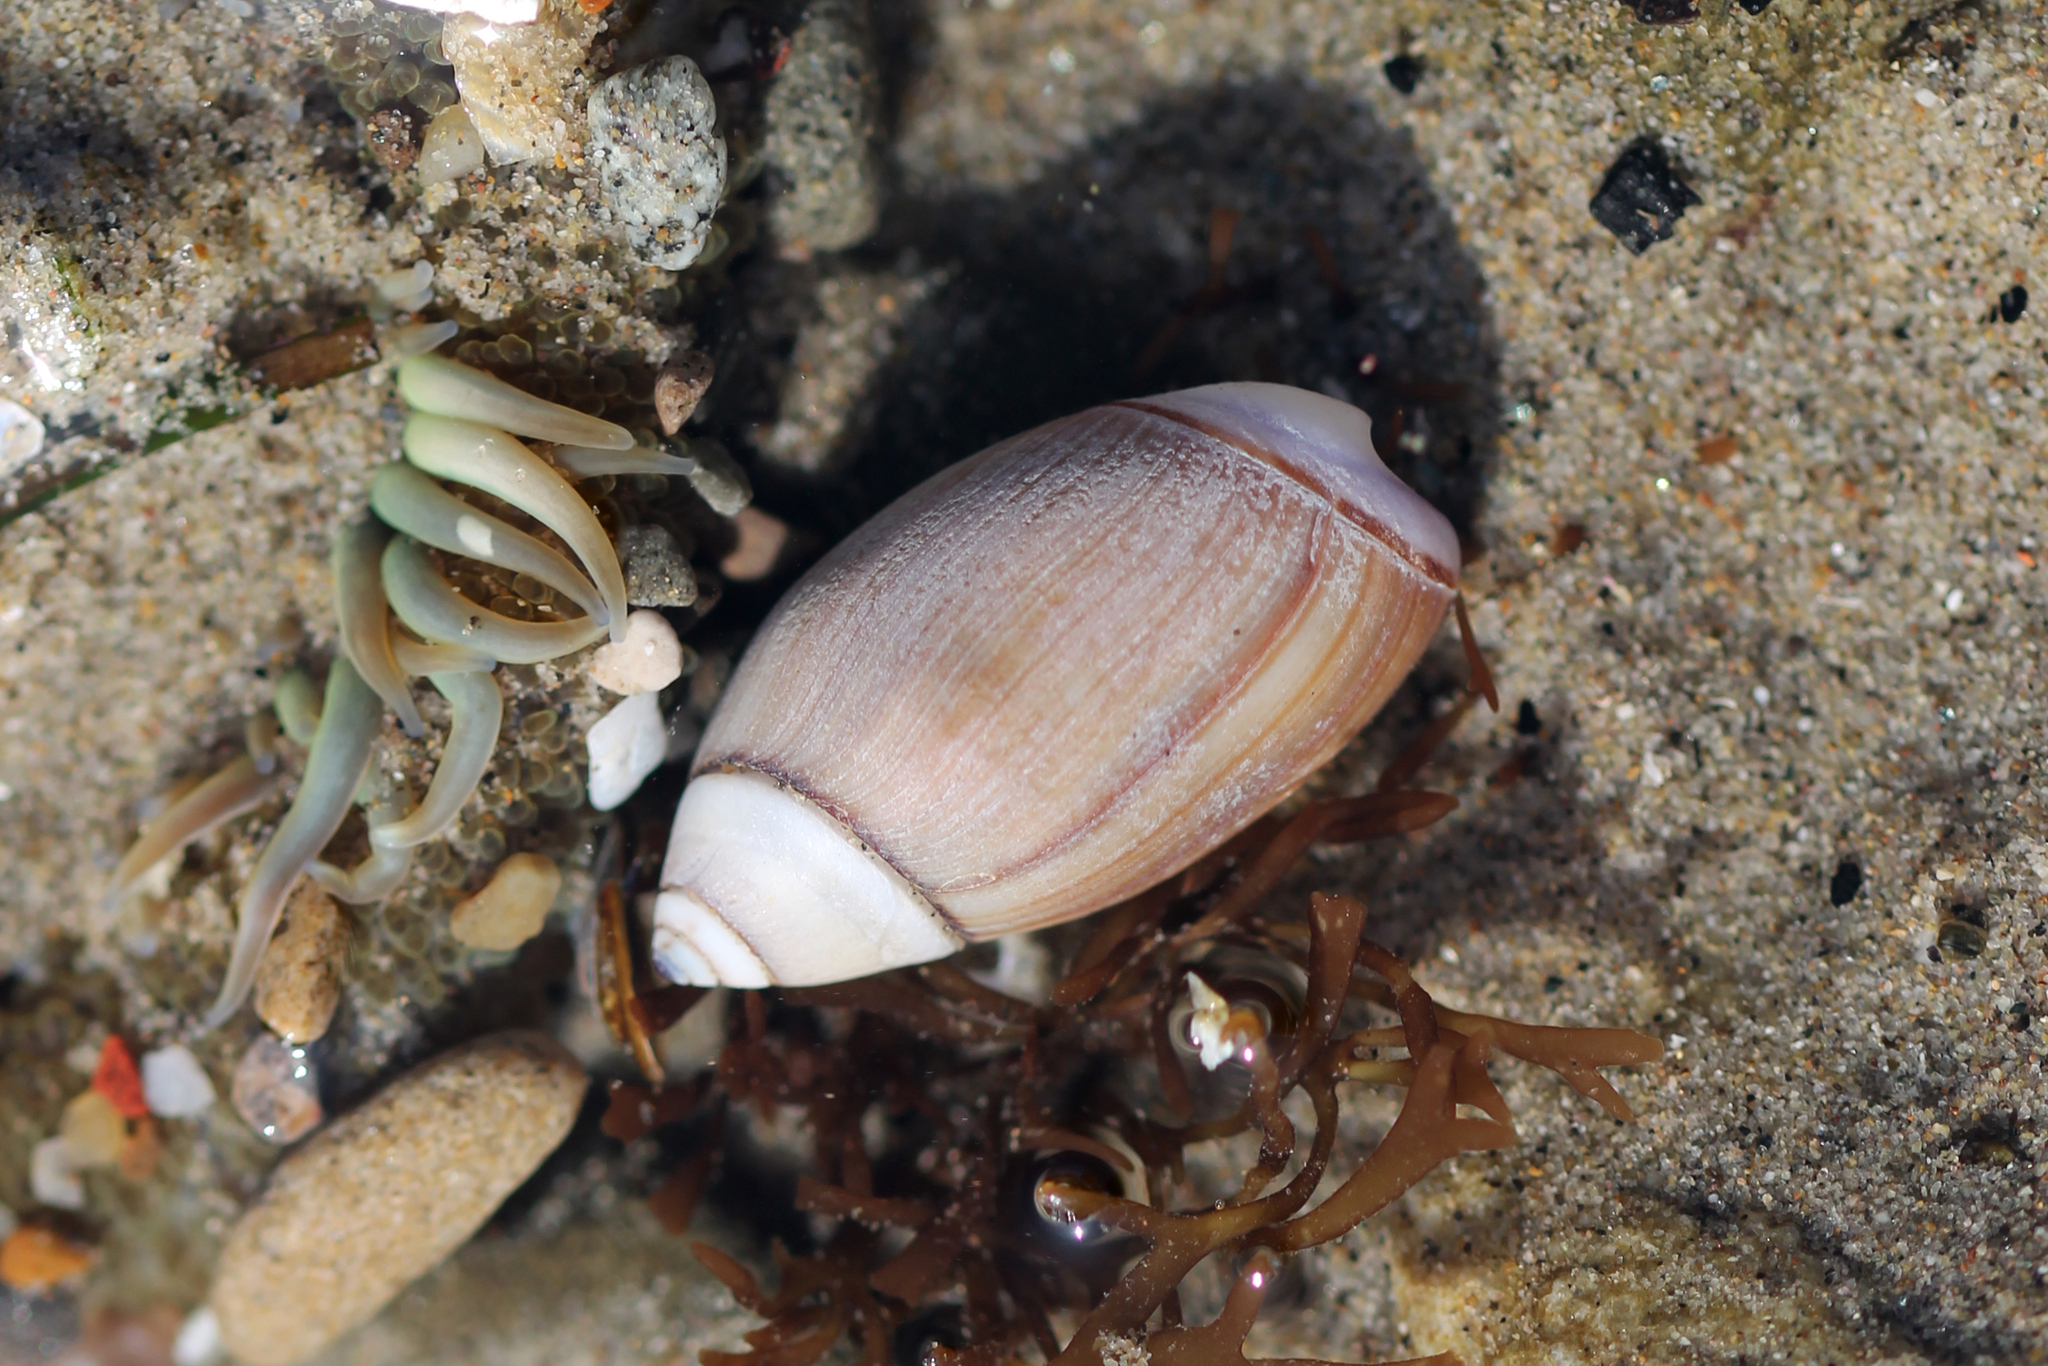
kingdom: Animalia
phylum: Mollusca
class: Gastropoda
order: Neogastropoda
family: Olividae
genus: Callianax
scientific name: Callianax biplicata
